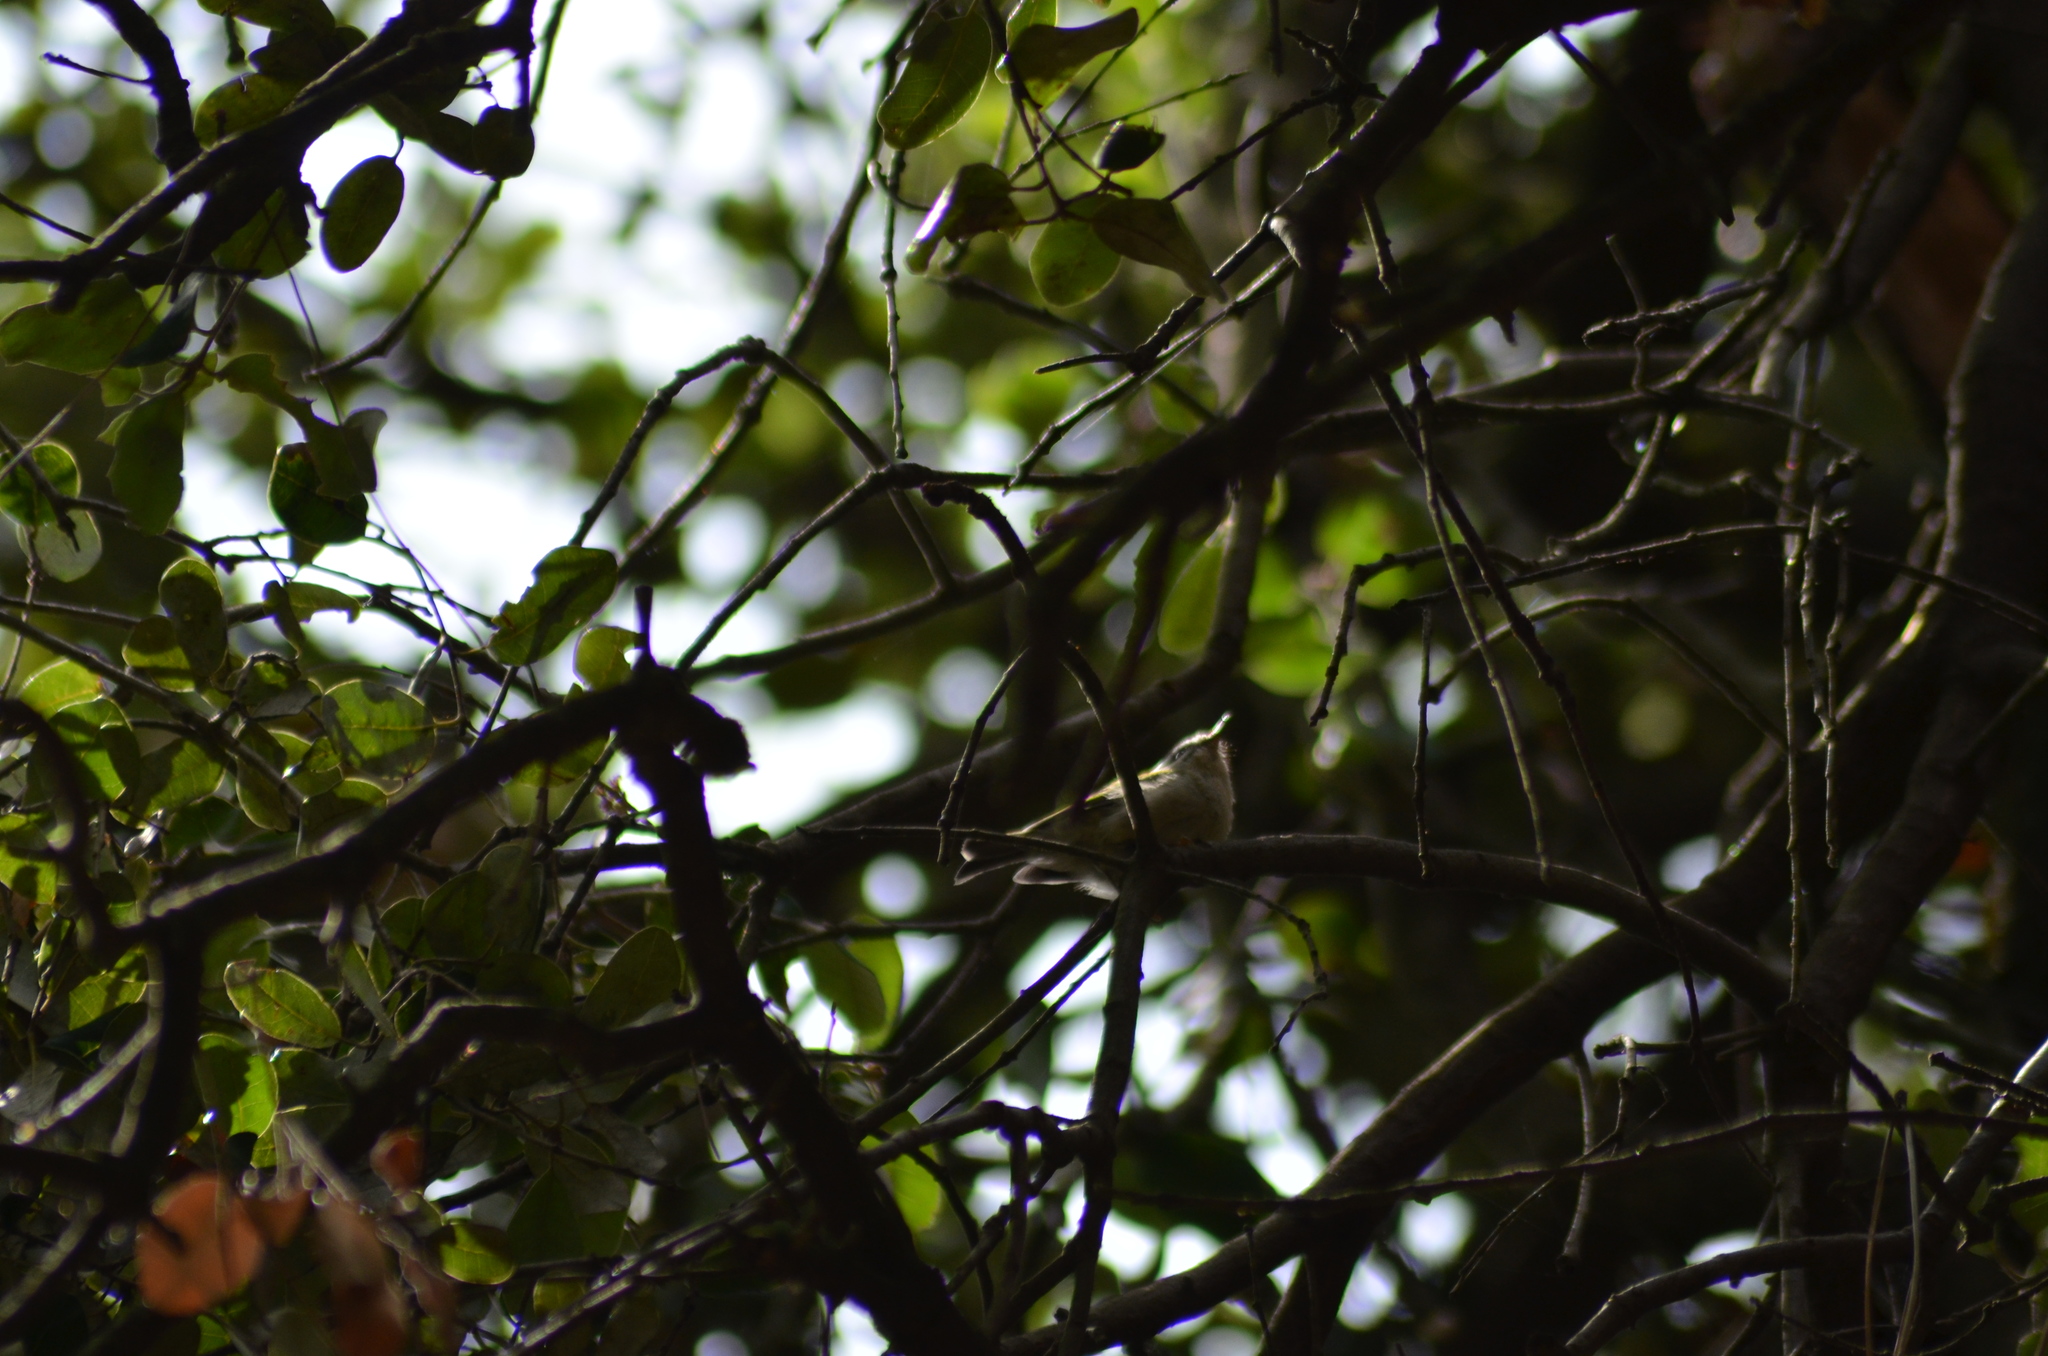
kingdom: Animalia
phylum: Chordata
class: Aves
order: Passeriformes
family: Regulidae
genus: Regulus
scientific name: Regulus ignicapilla
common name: Firecrest
